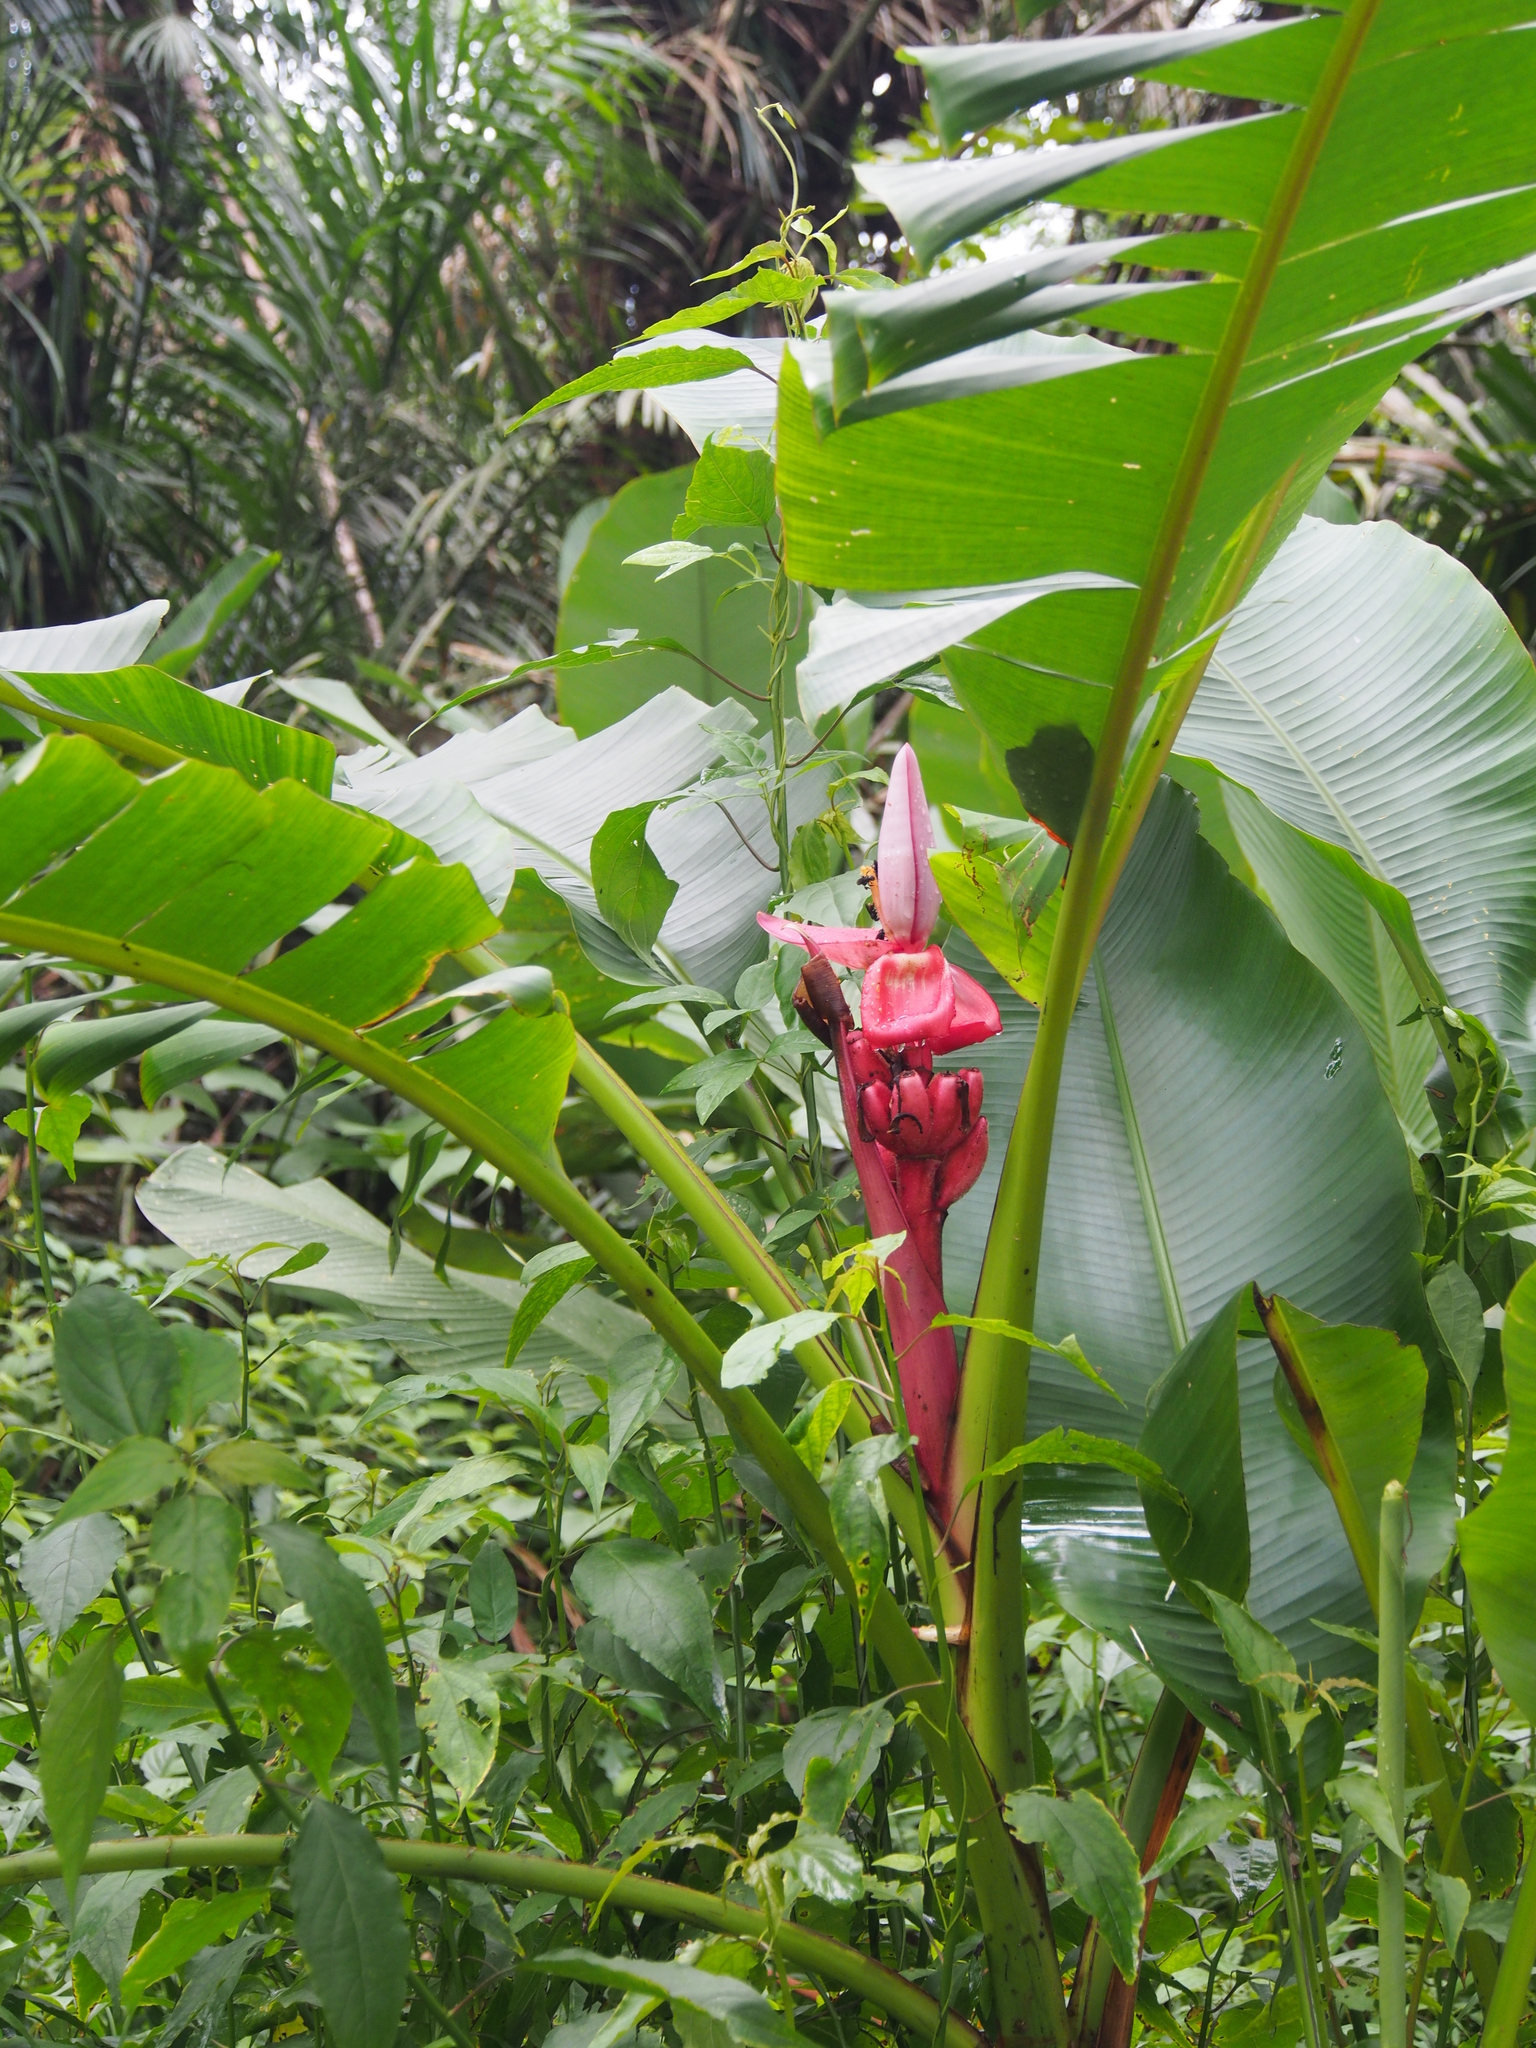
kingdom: Plantae
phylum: Tracheophyta
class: Liliopsida
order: Zingiberales
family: Musaceae
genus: Musa
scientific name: Musa velutina
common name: Pink velvet banana
